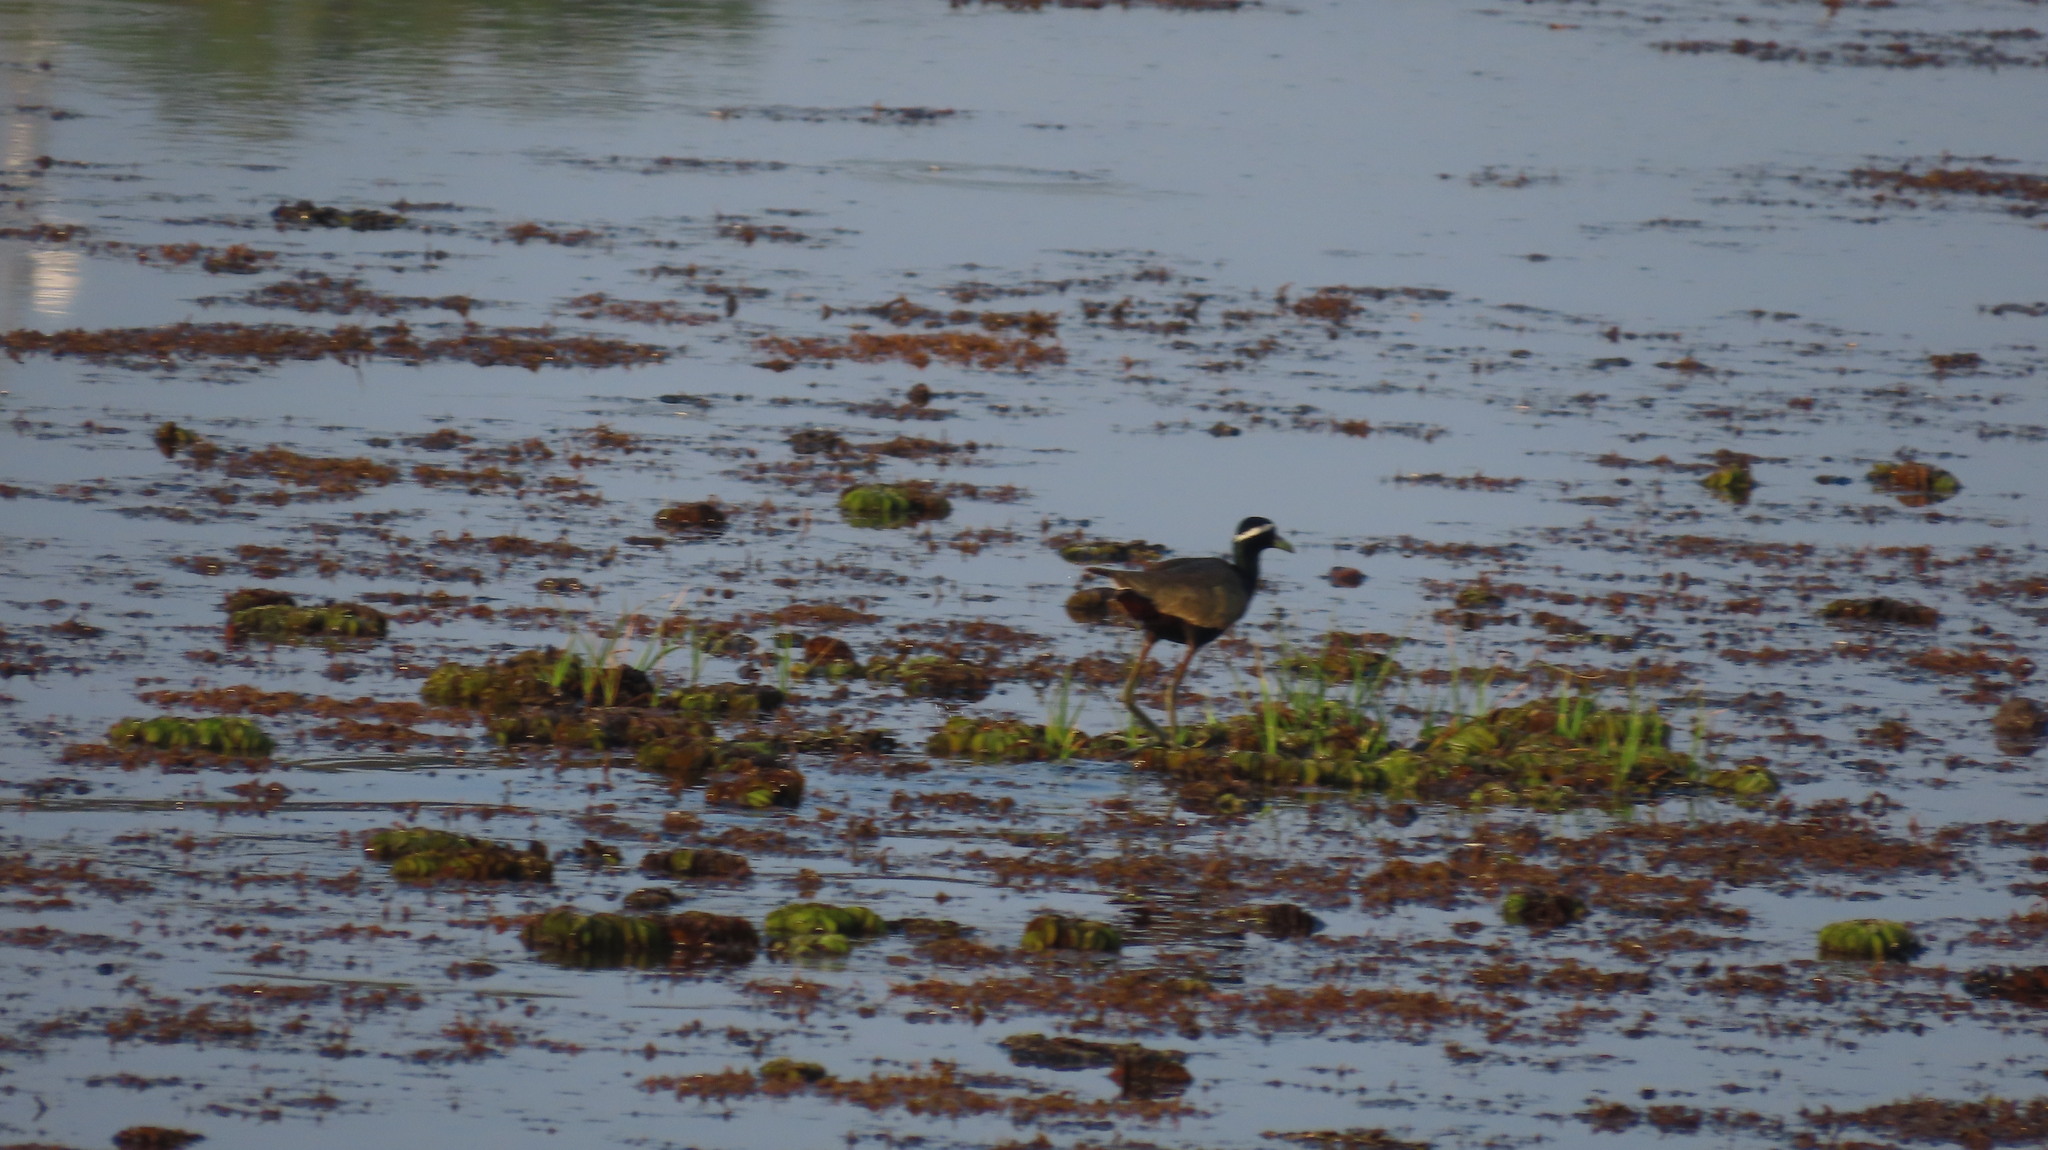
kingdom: Animalia
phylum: Chordata
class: Aves
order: Charadriiformes
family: Jacanidae
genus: Metopidius
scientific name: Metopidius indicus
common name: Bronze-winged jacana
